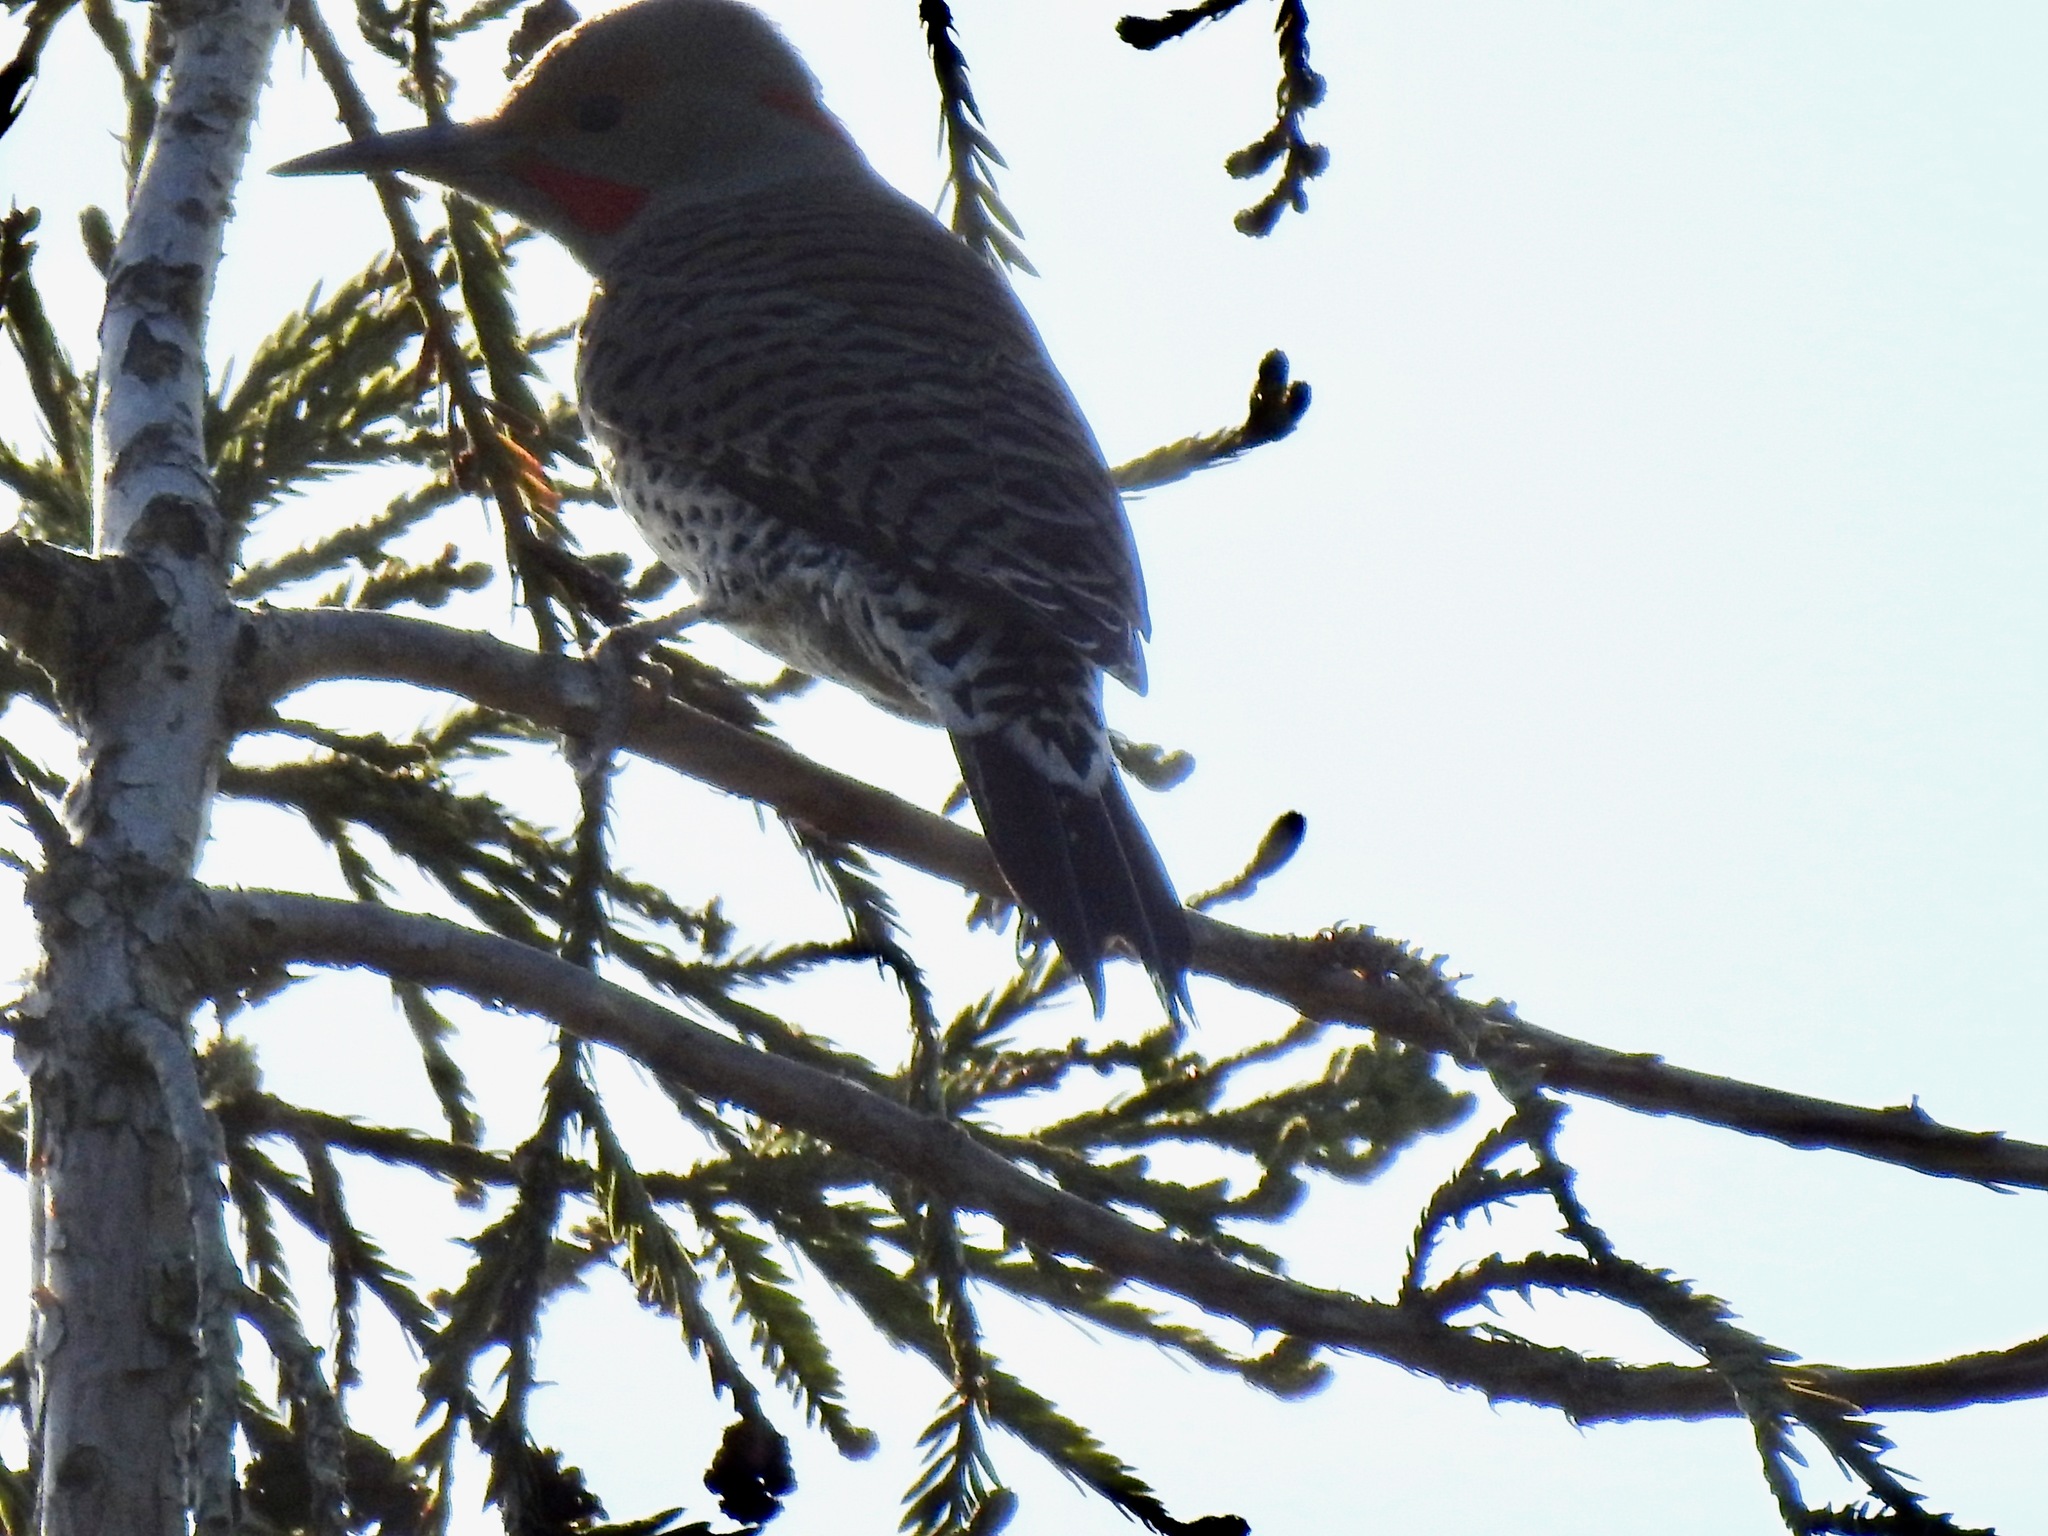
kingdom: Animalia
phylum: Chordata
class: Aves
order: Piciformes
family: Picidae
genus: Colaptes
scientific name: Colaptes auratus
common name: Northern flicker
